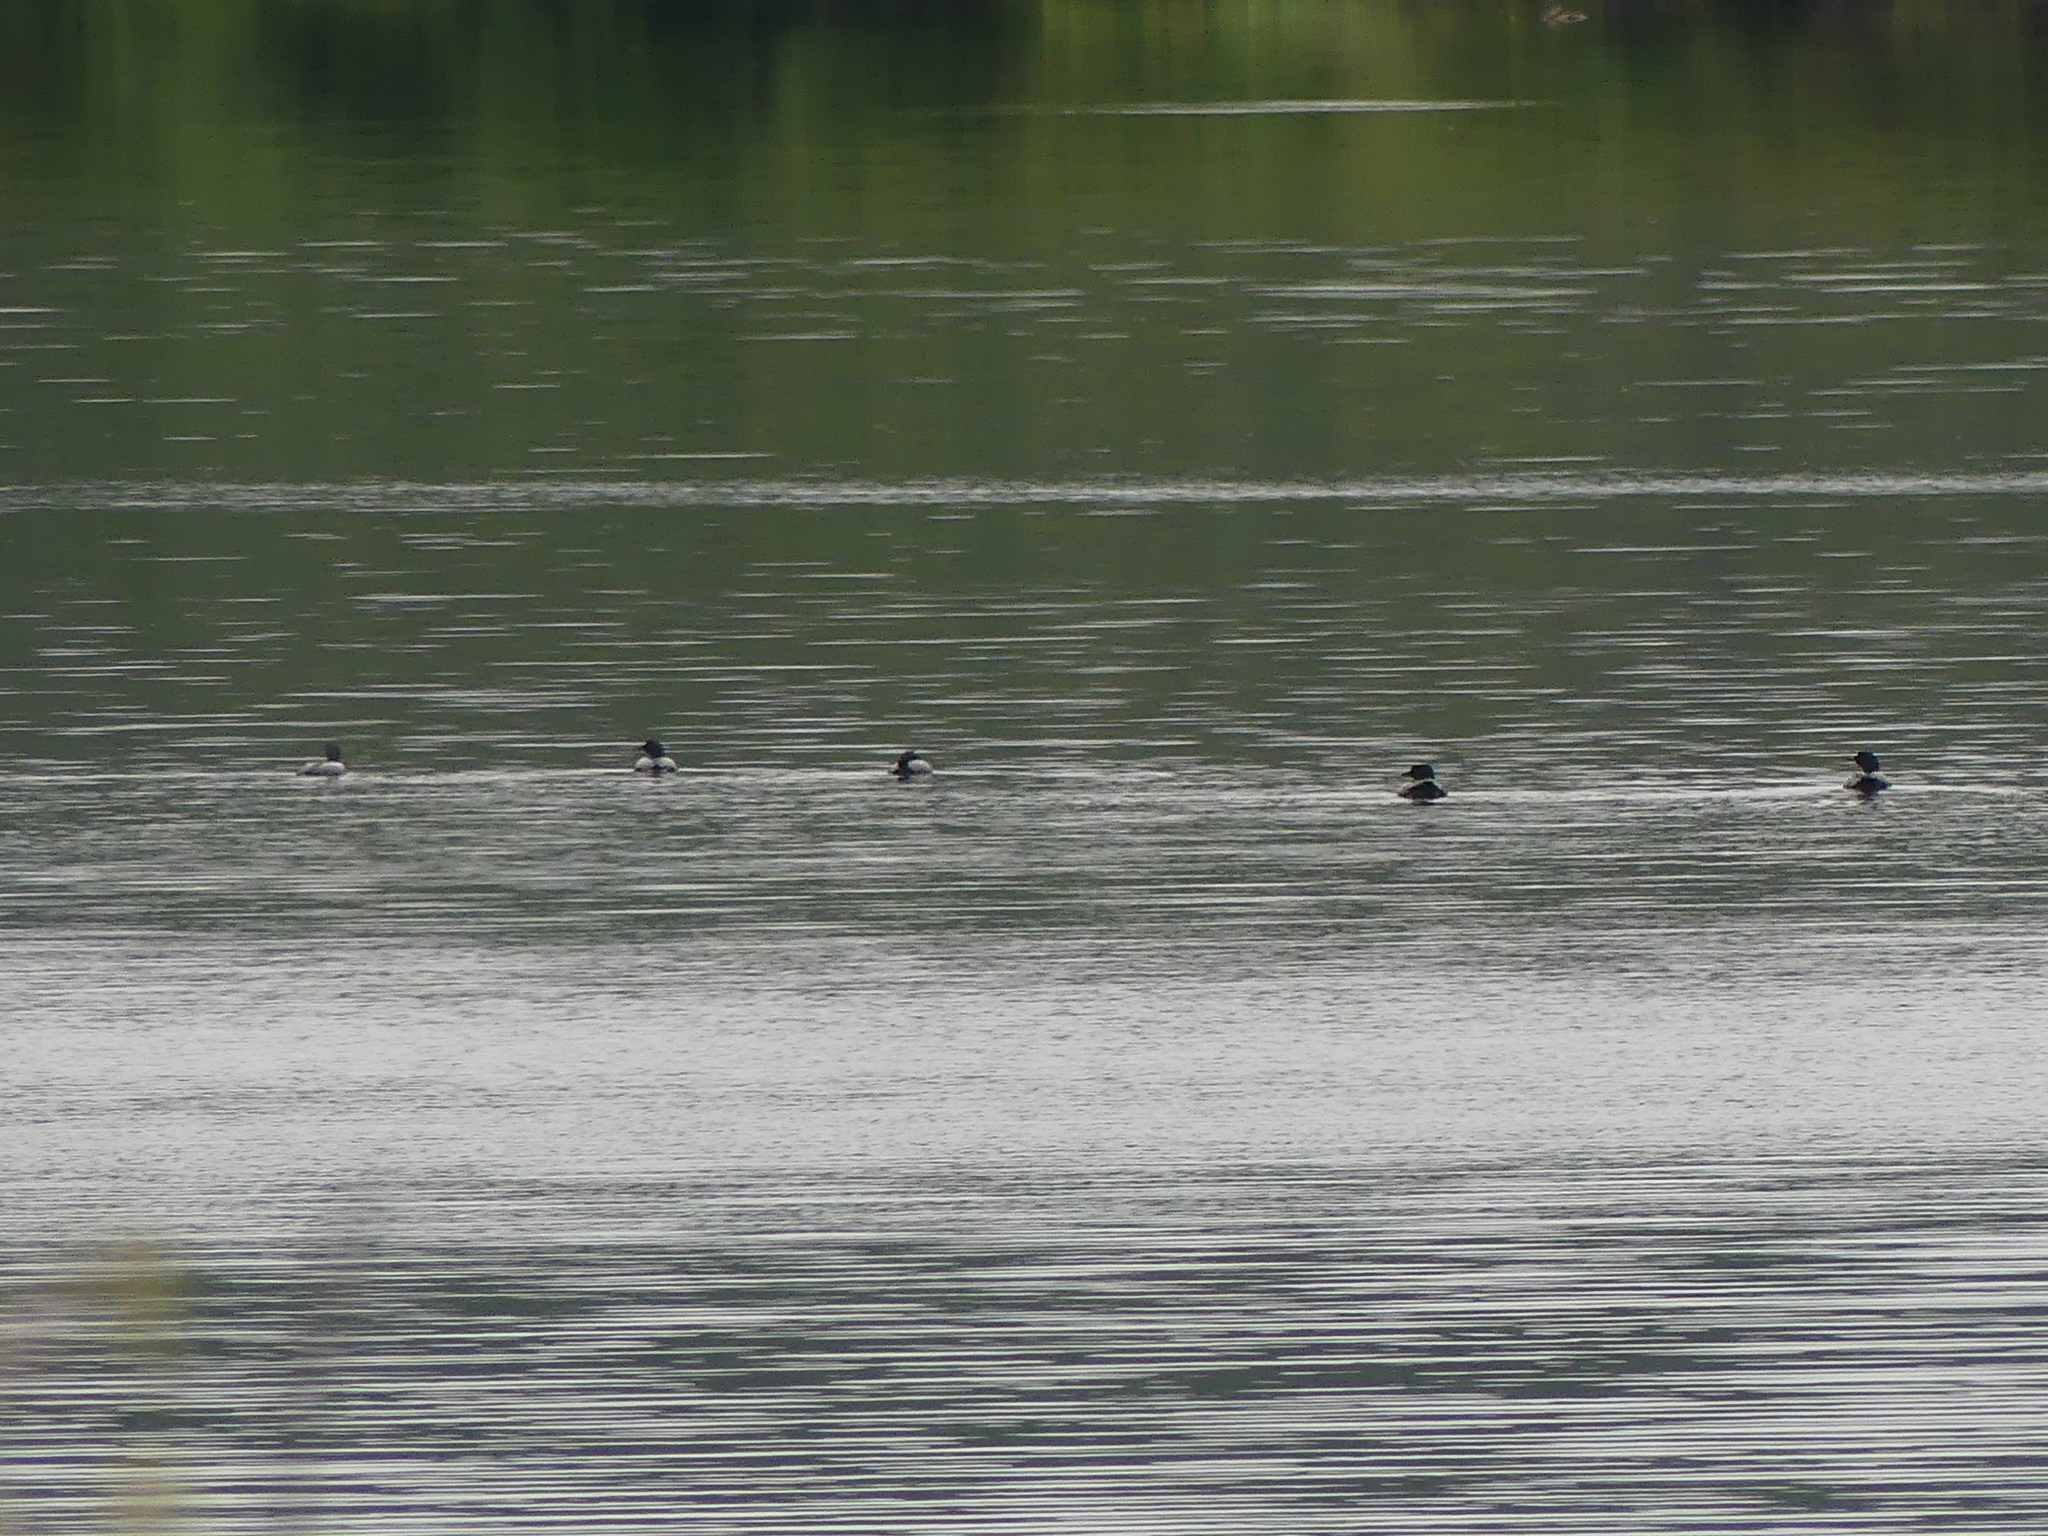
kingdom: Animalia
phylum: Chordata
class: Aves
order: Gaviiformes
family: Gaviidae
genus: Gavia
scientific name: Gavia immer
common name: Common loon
